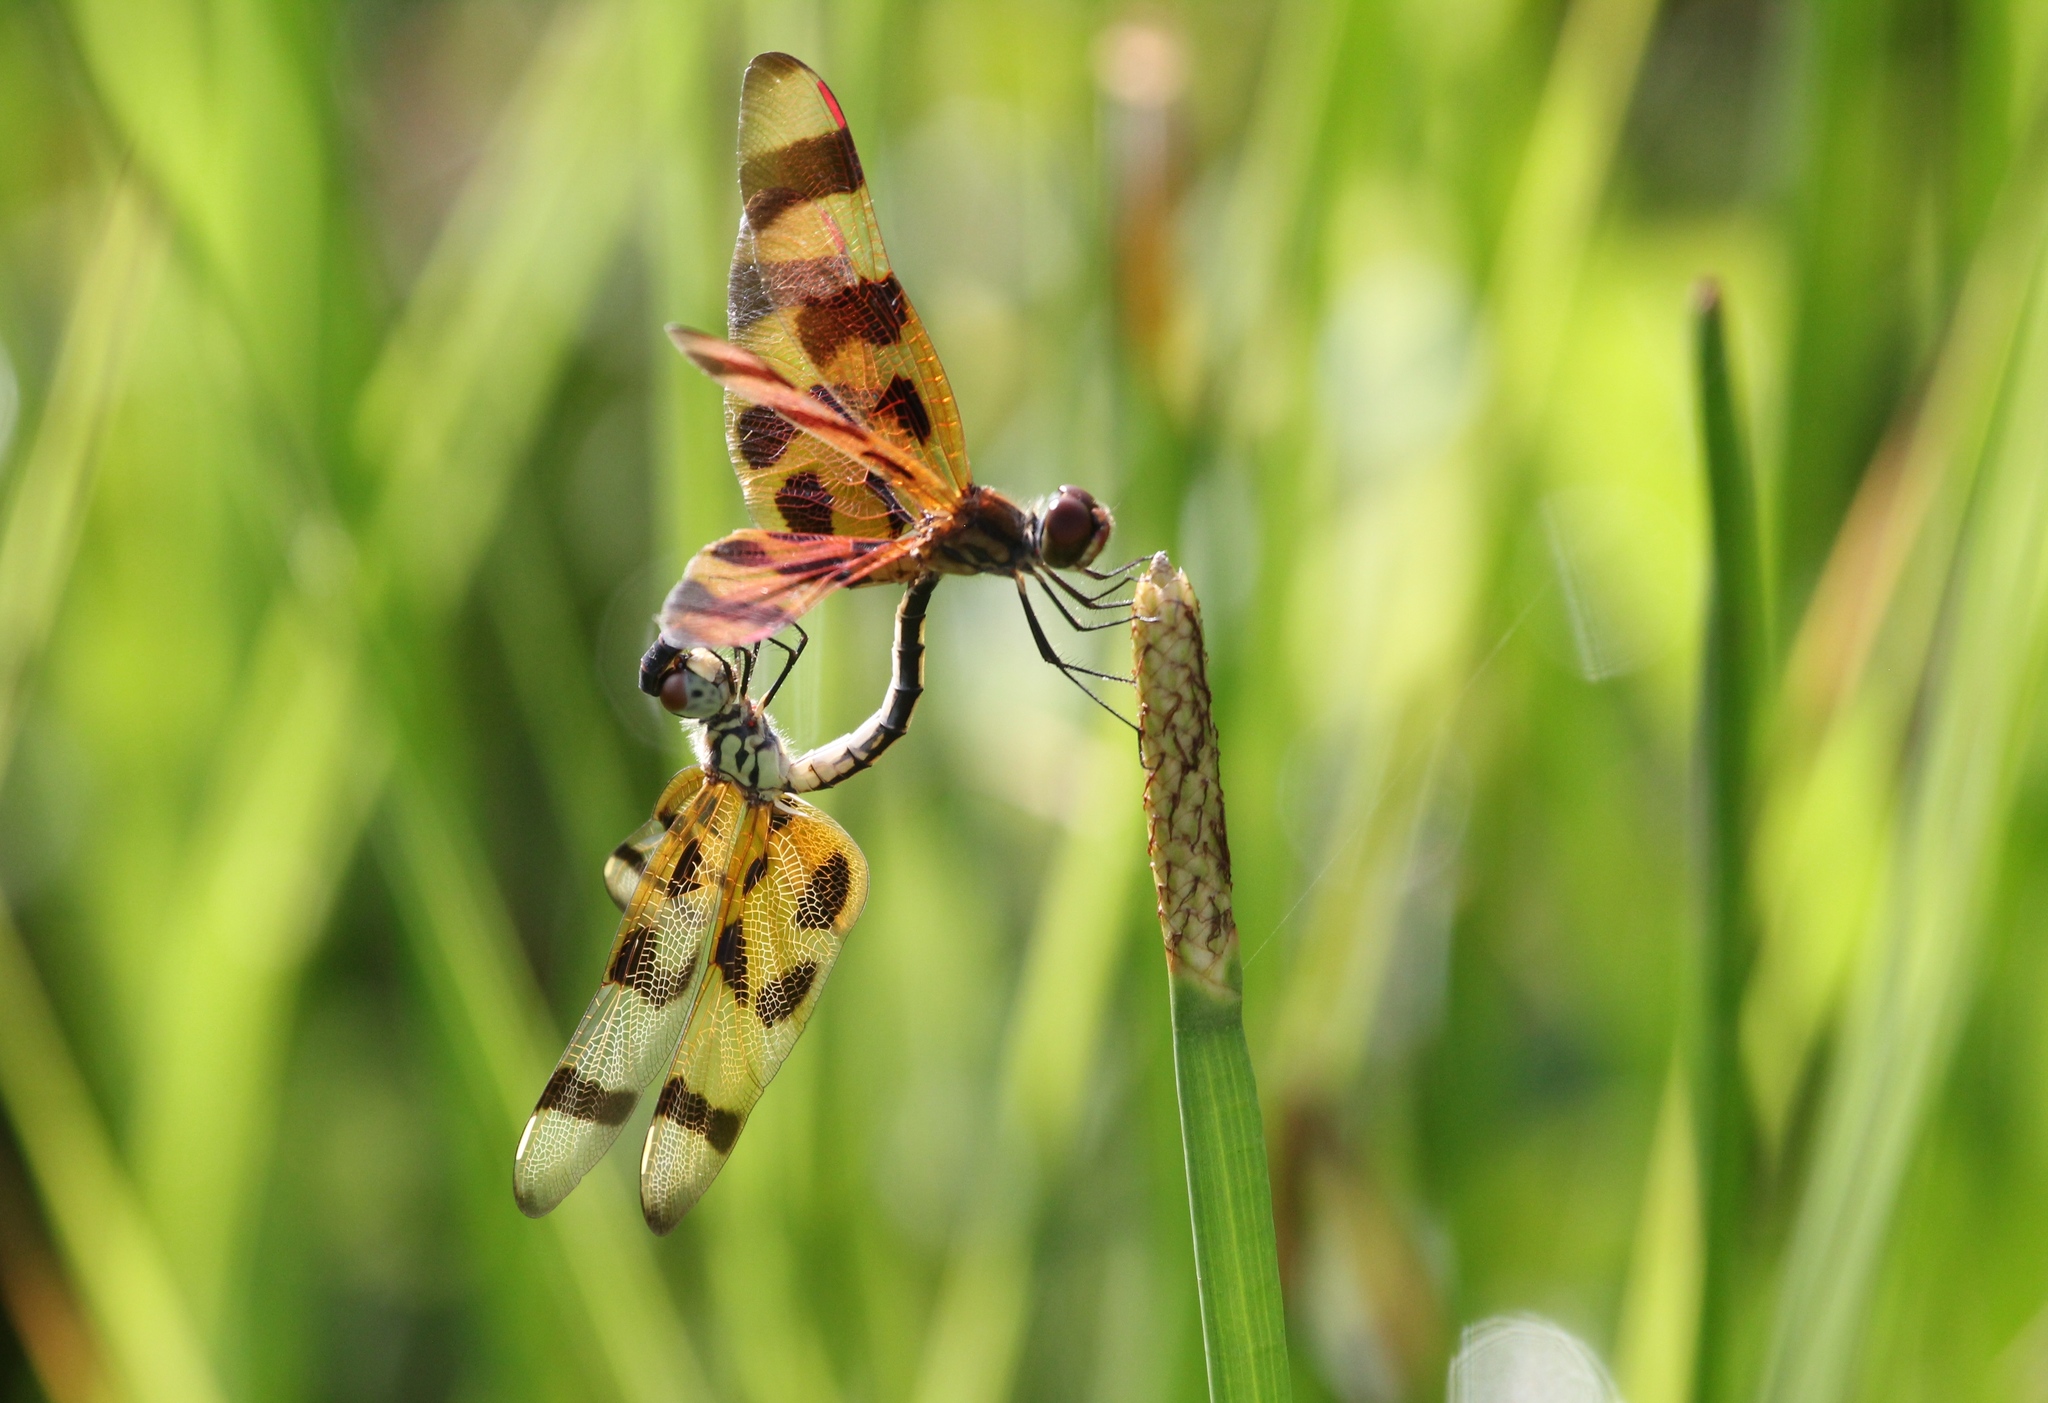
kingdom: Animalia
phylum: Arthropoda
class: Insecta
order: Odonata
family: Libellulidae
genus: Celithemis
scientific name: Celithemis eponina
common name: Halloween pennant
